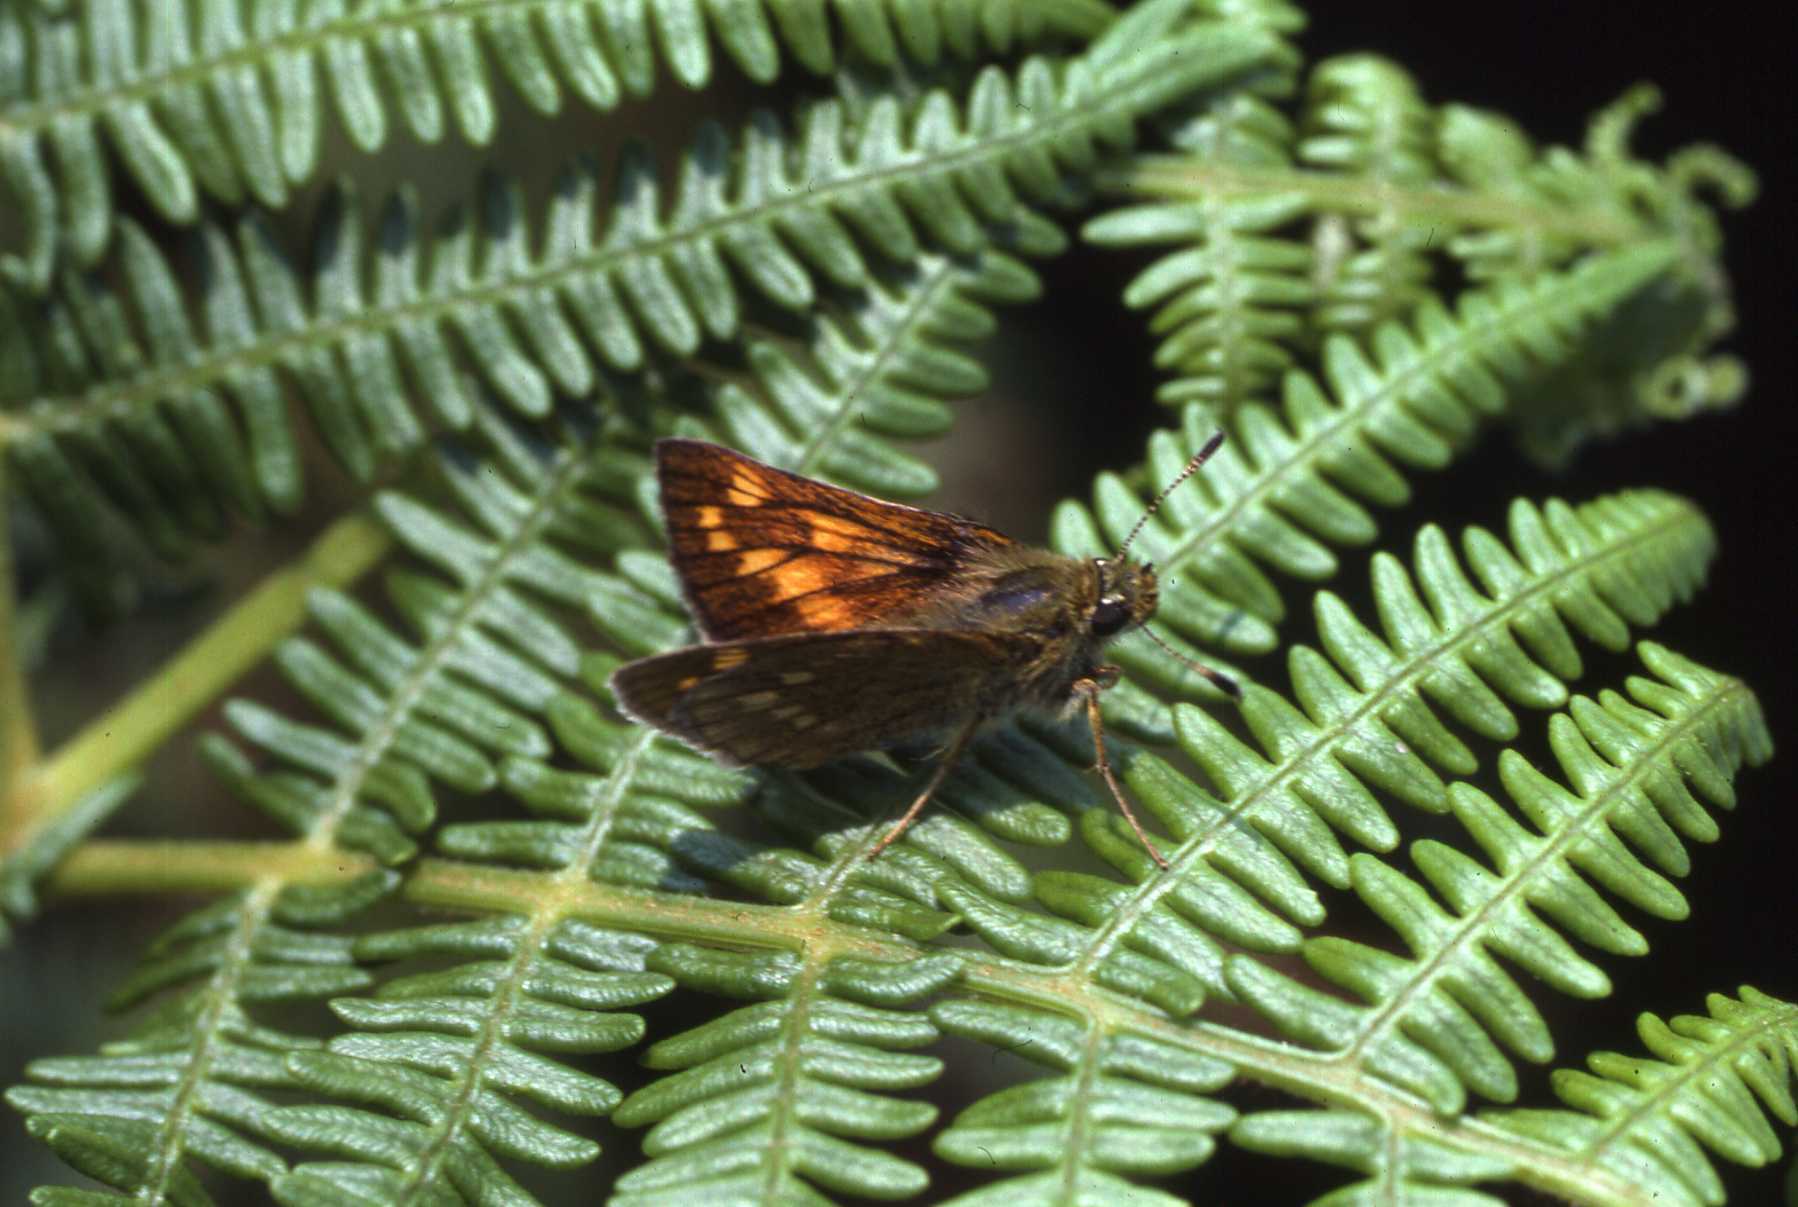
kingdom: Animalia
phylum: Arthropoda
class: Insecta
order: Lepidoptera
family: Hesperiidae
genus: Ochlodes
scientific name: Ochlodes venata
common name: Large skipper
